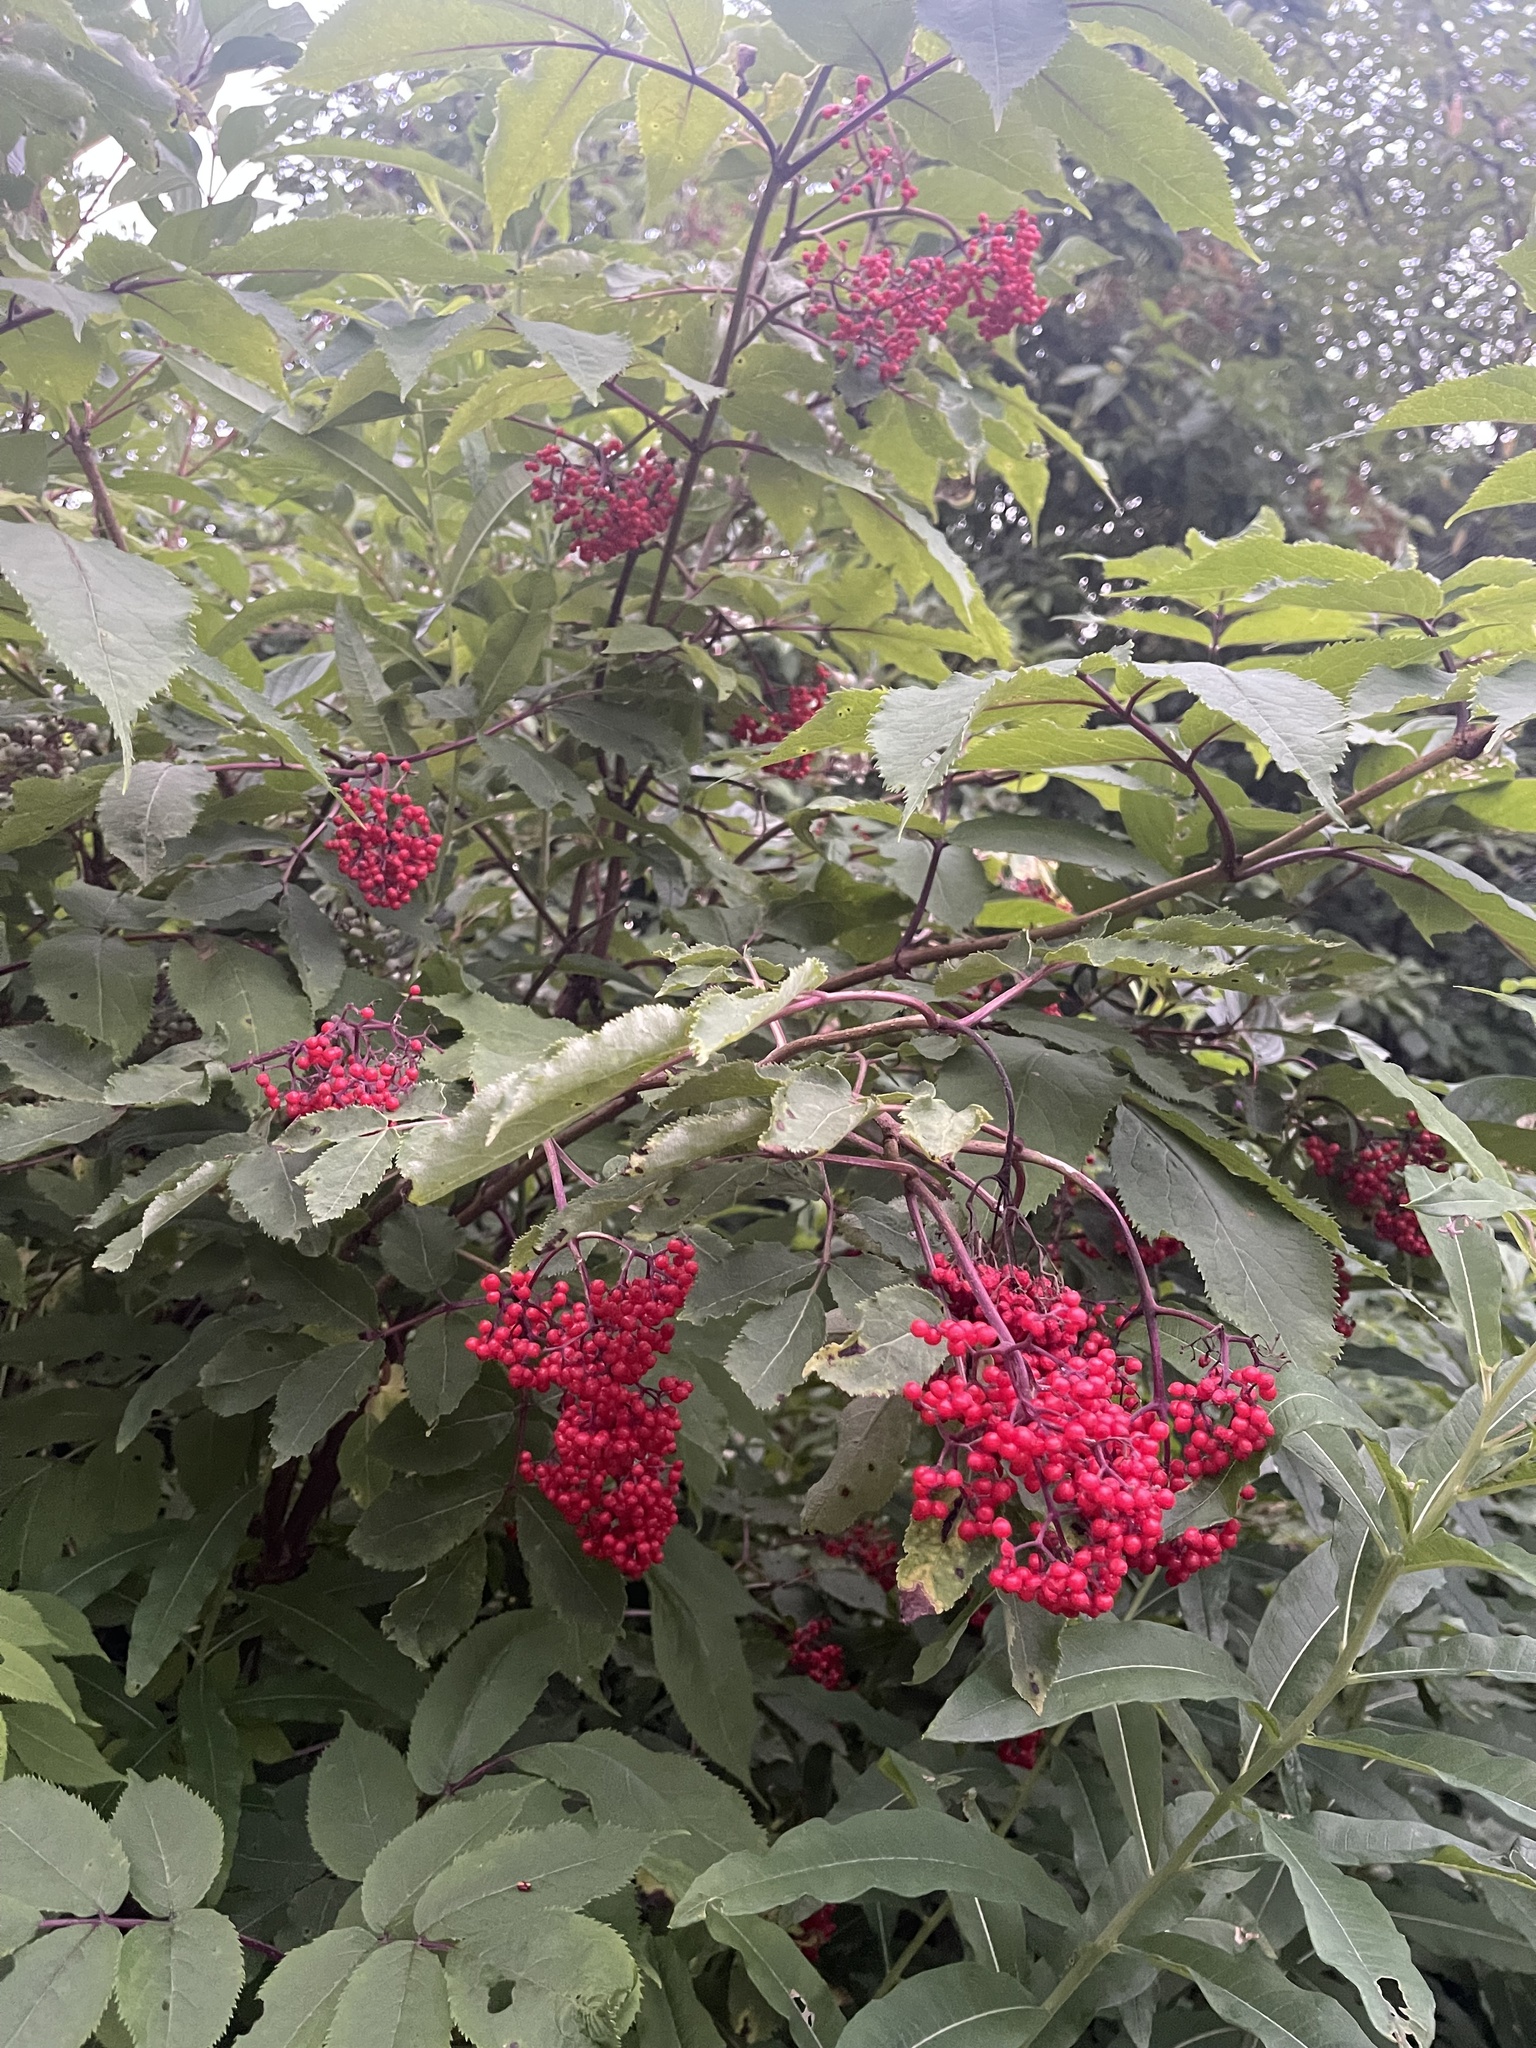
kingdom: Plantae
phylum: Tracheophyta
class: Magnoliopsida
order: Dipsacales
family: Viburnaceae
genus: Sambucus
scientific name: Sambucus racemosa
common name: Red-berried elder
